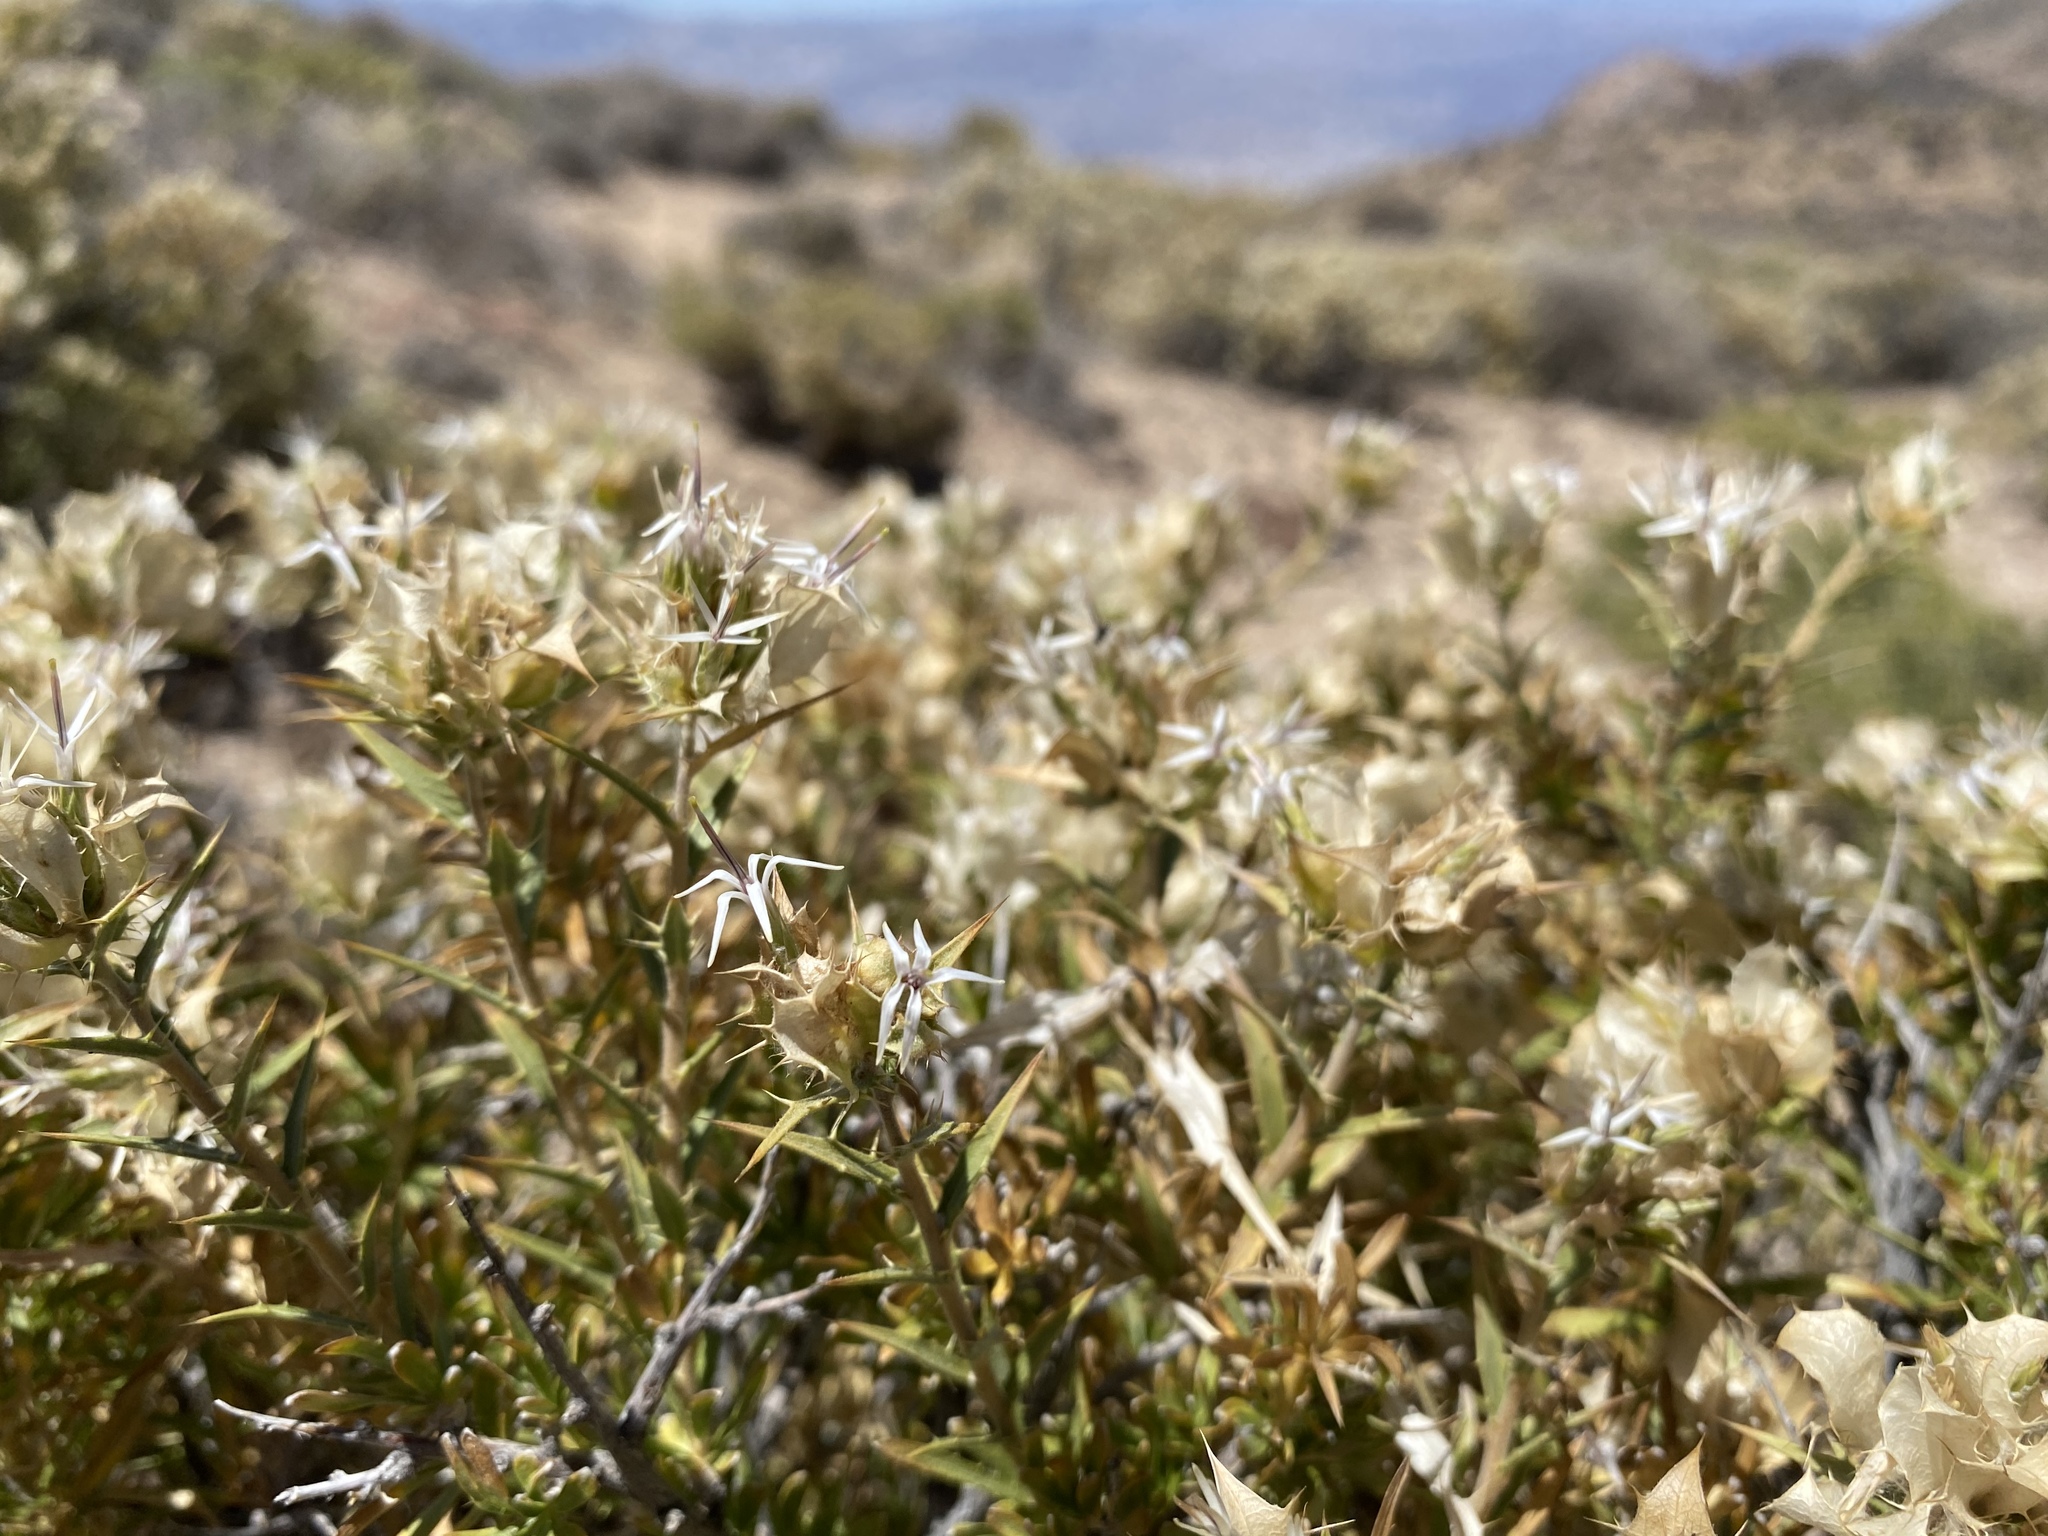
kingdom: Plantae
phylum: Tracheophyta
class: Magnoliopsida
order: Asterales
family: Asteraceae
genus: Hecastocleis
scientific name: Hecastocleis shockleyi
